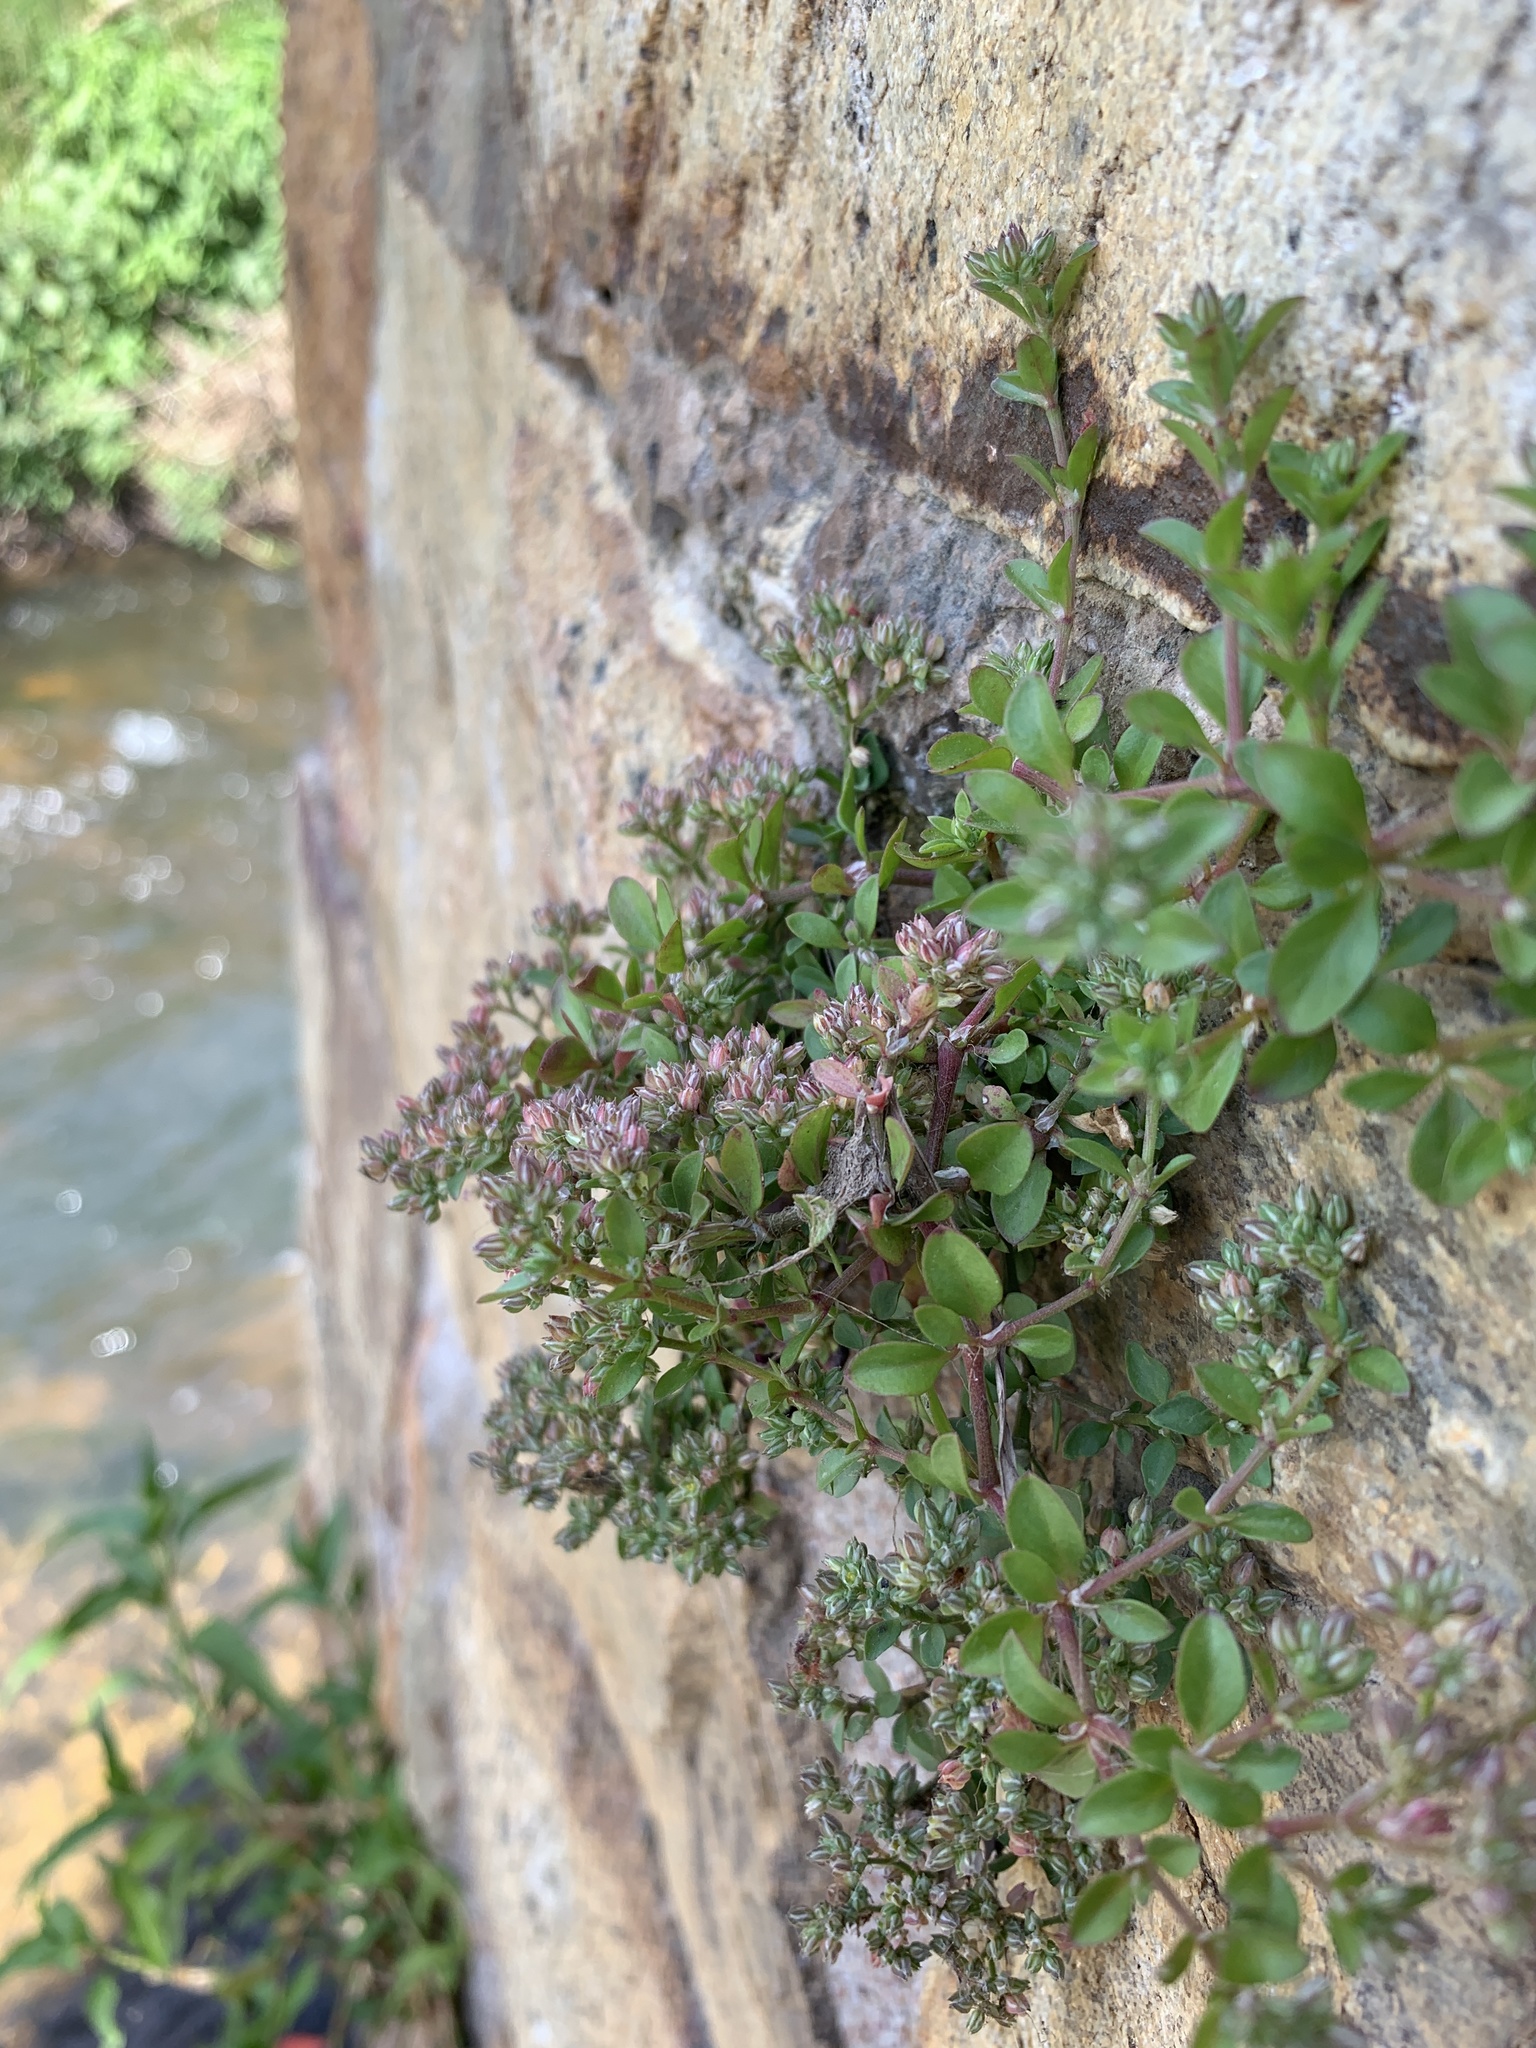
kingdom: Plantae
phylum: Tracheophyta
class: Magnoliopsida
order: Caryophyllales
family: Caryophyllaceae
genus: Polycarpon
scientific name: Polycarpon tetraphyllum
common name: Four-leaved all-seed
